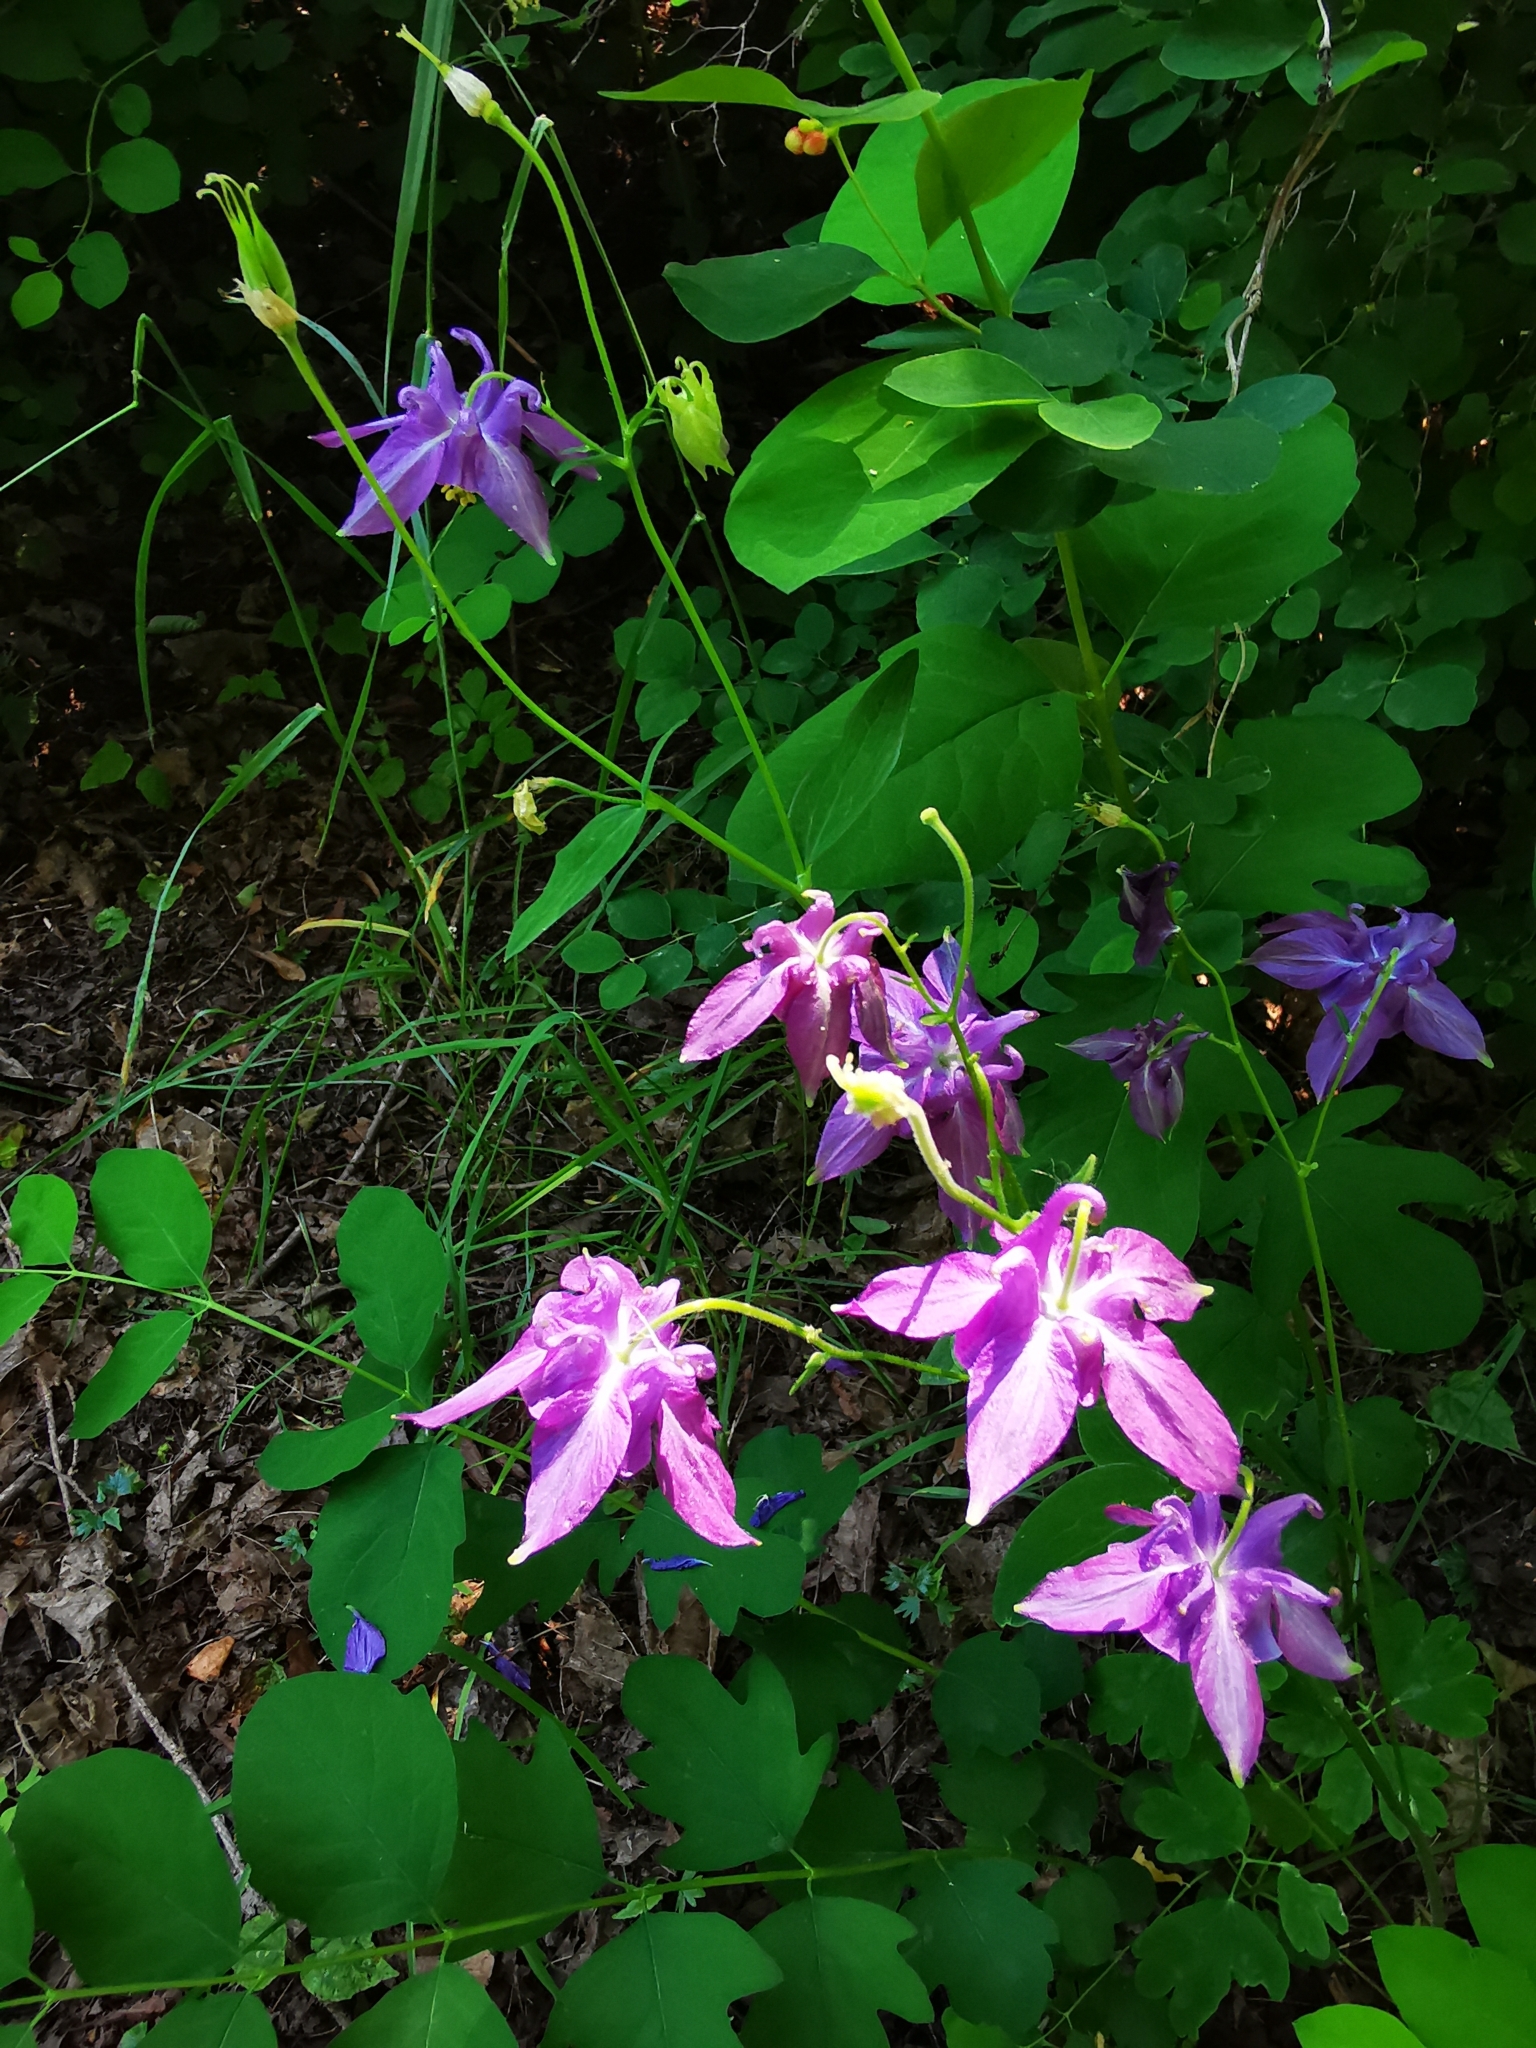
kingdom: Plantae
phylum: Tracheophyta
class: Magnoliopsida
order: Ranunculales
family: Ranunculaceae
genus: Aquilegia
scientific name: Aquilegia vulgaris
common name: Columbine
